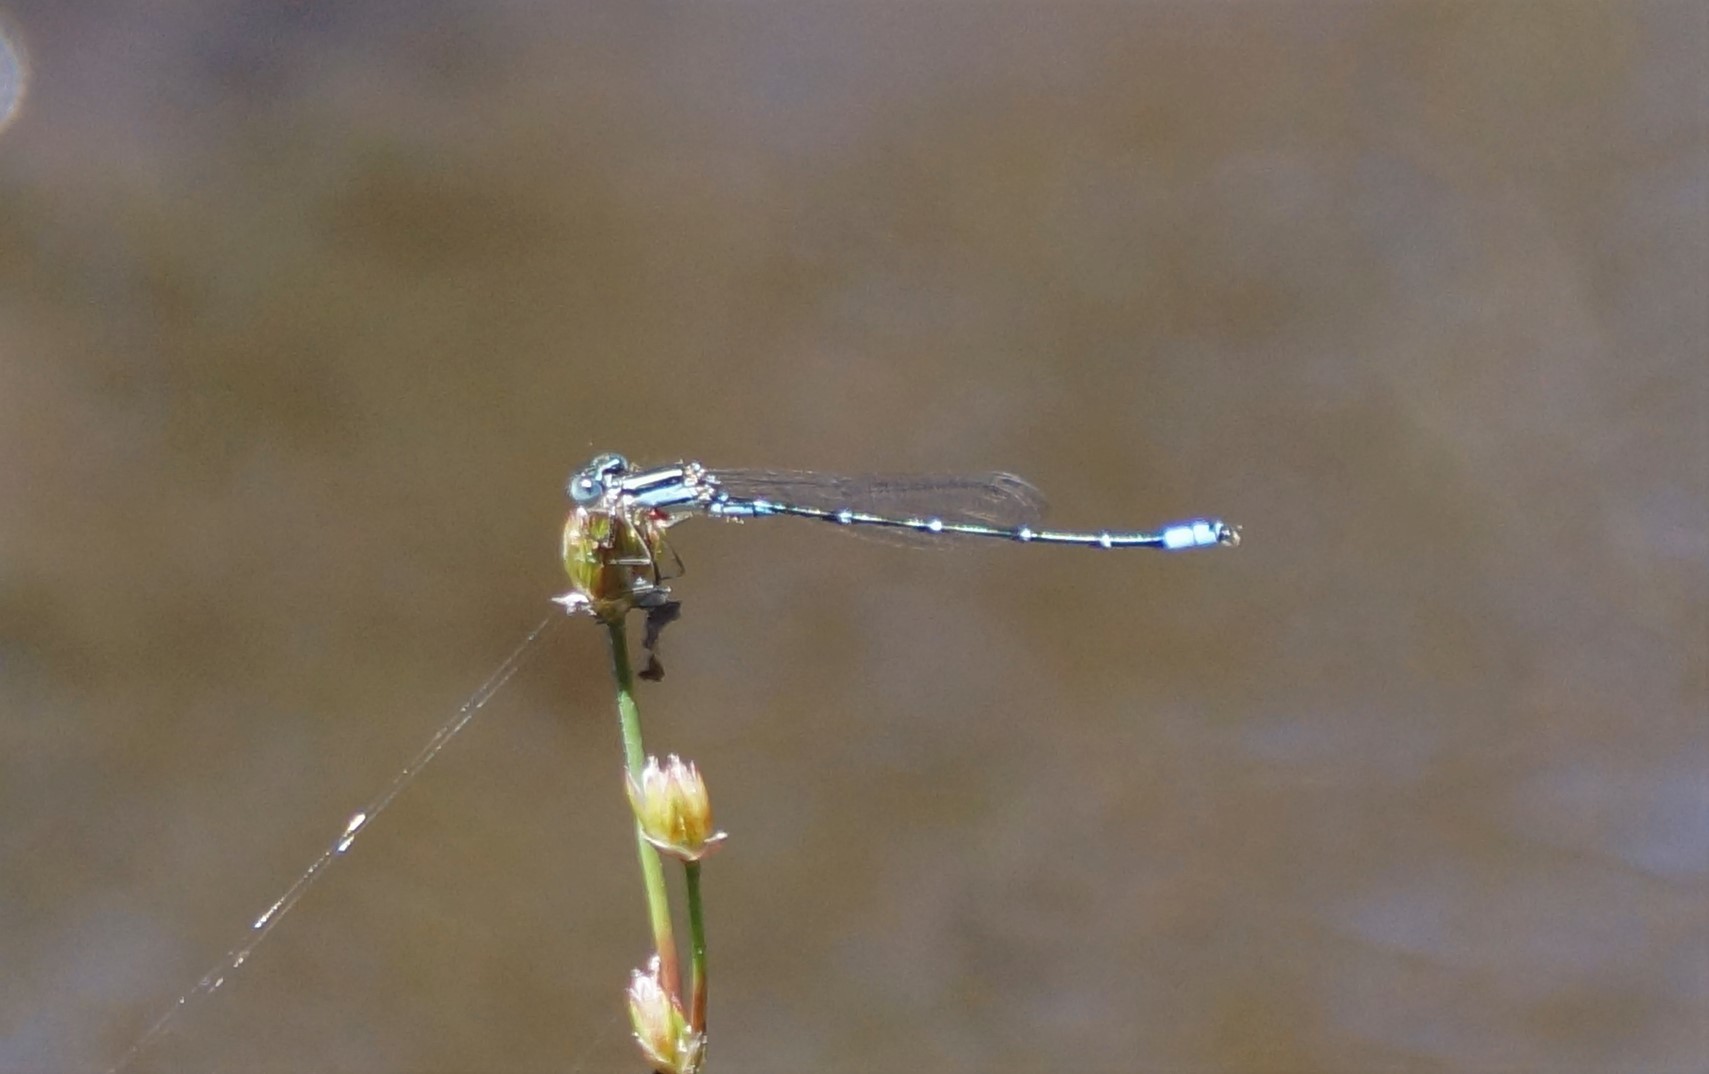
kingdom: Animalia
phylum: Arthropoda
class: Insecta
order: Odonata
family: Coenagrionidae
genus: Austroagrion
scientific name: Austroagrion watsoni
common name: Eastern billabongfly
